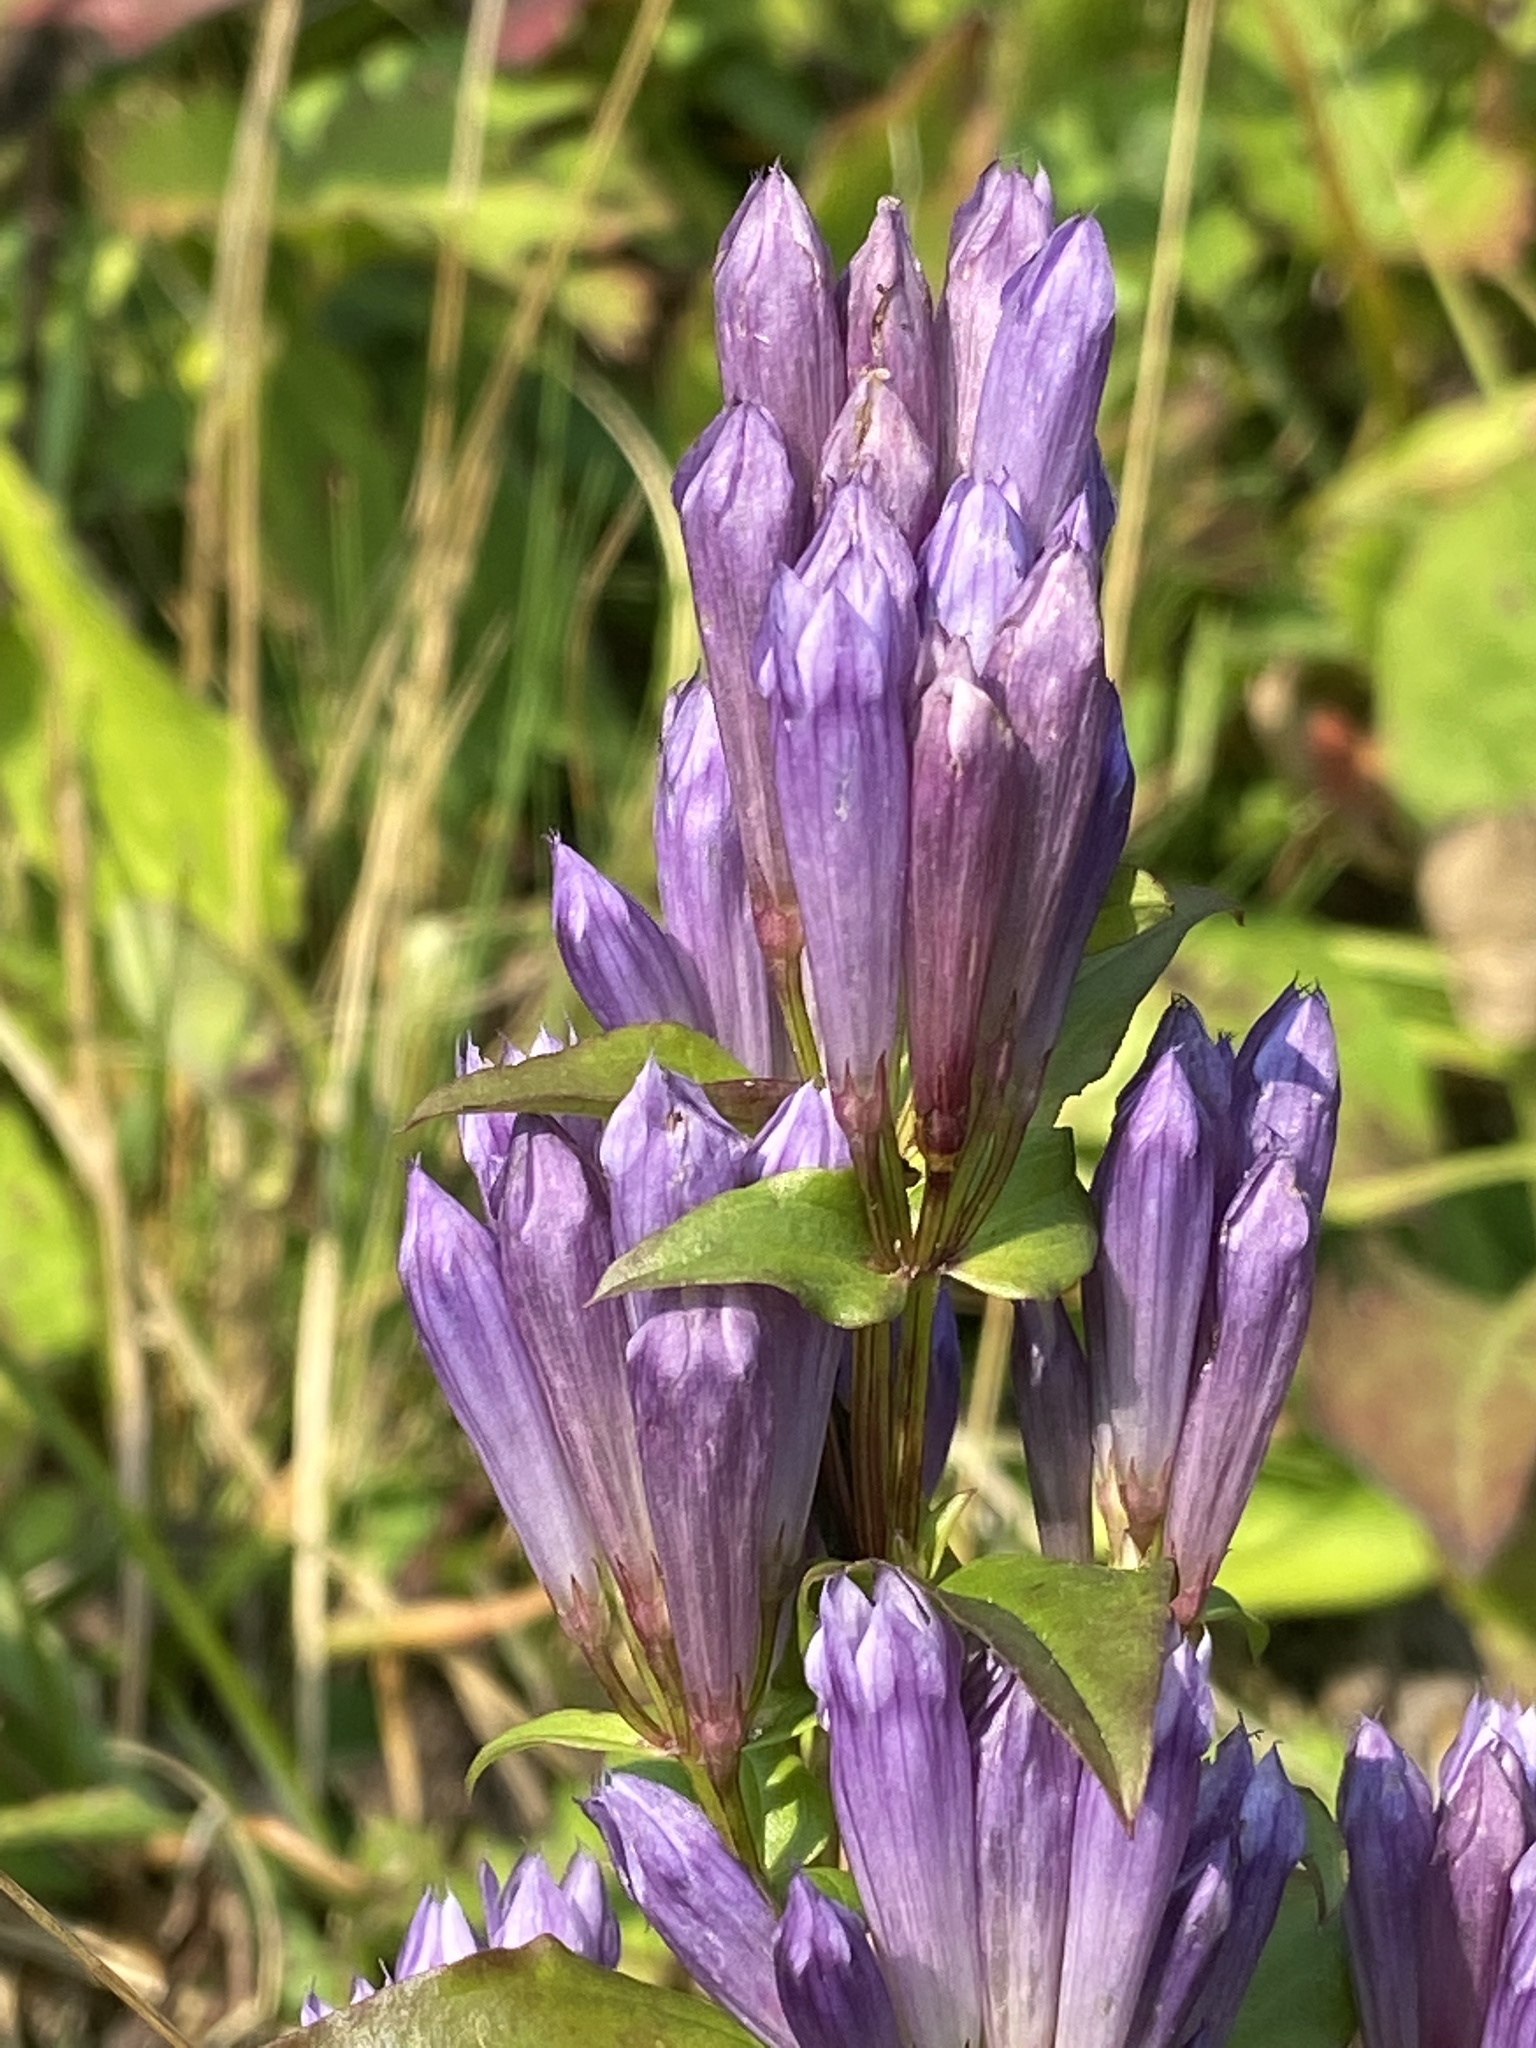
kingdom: Plantae
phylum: Tracheophyta
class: Magnoliopsida
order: Gentianales
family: Gentianaceae
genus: Gentianella
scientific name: Gentianella quinquefolia
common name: Agueweed
